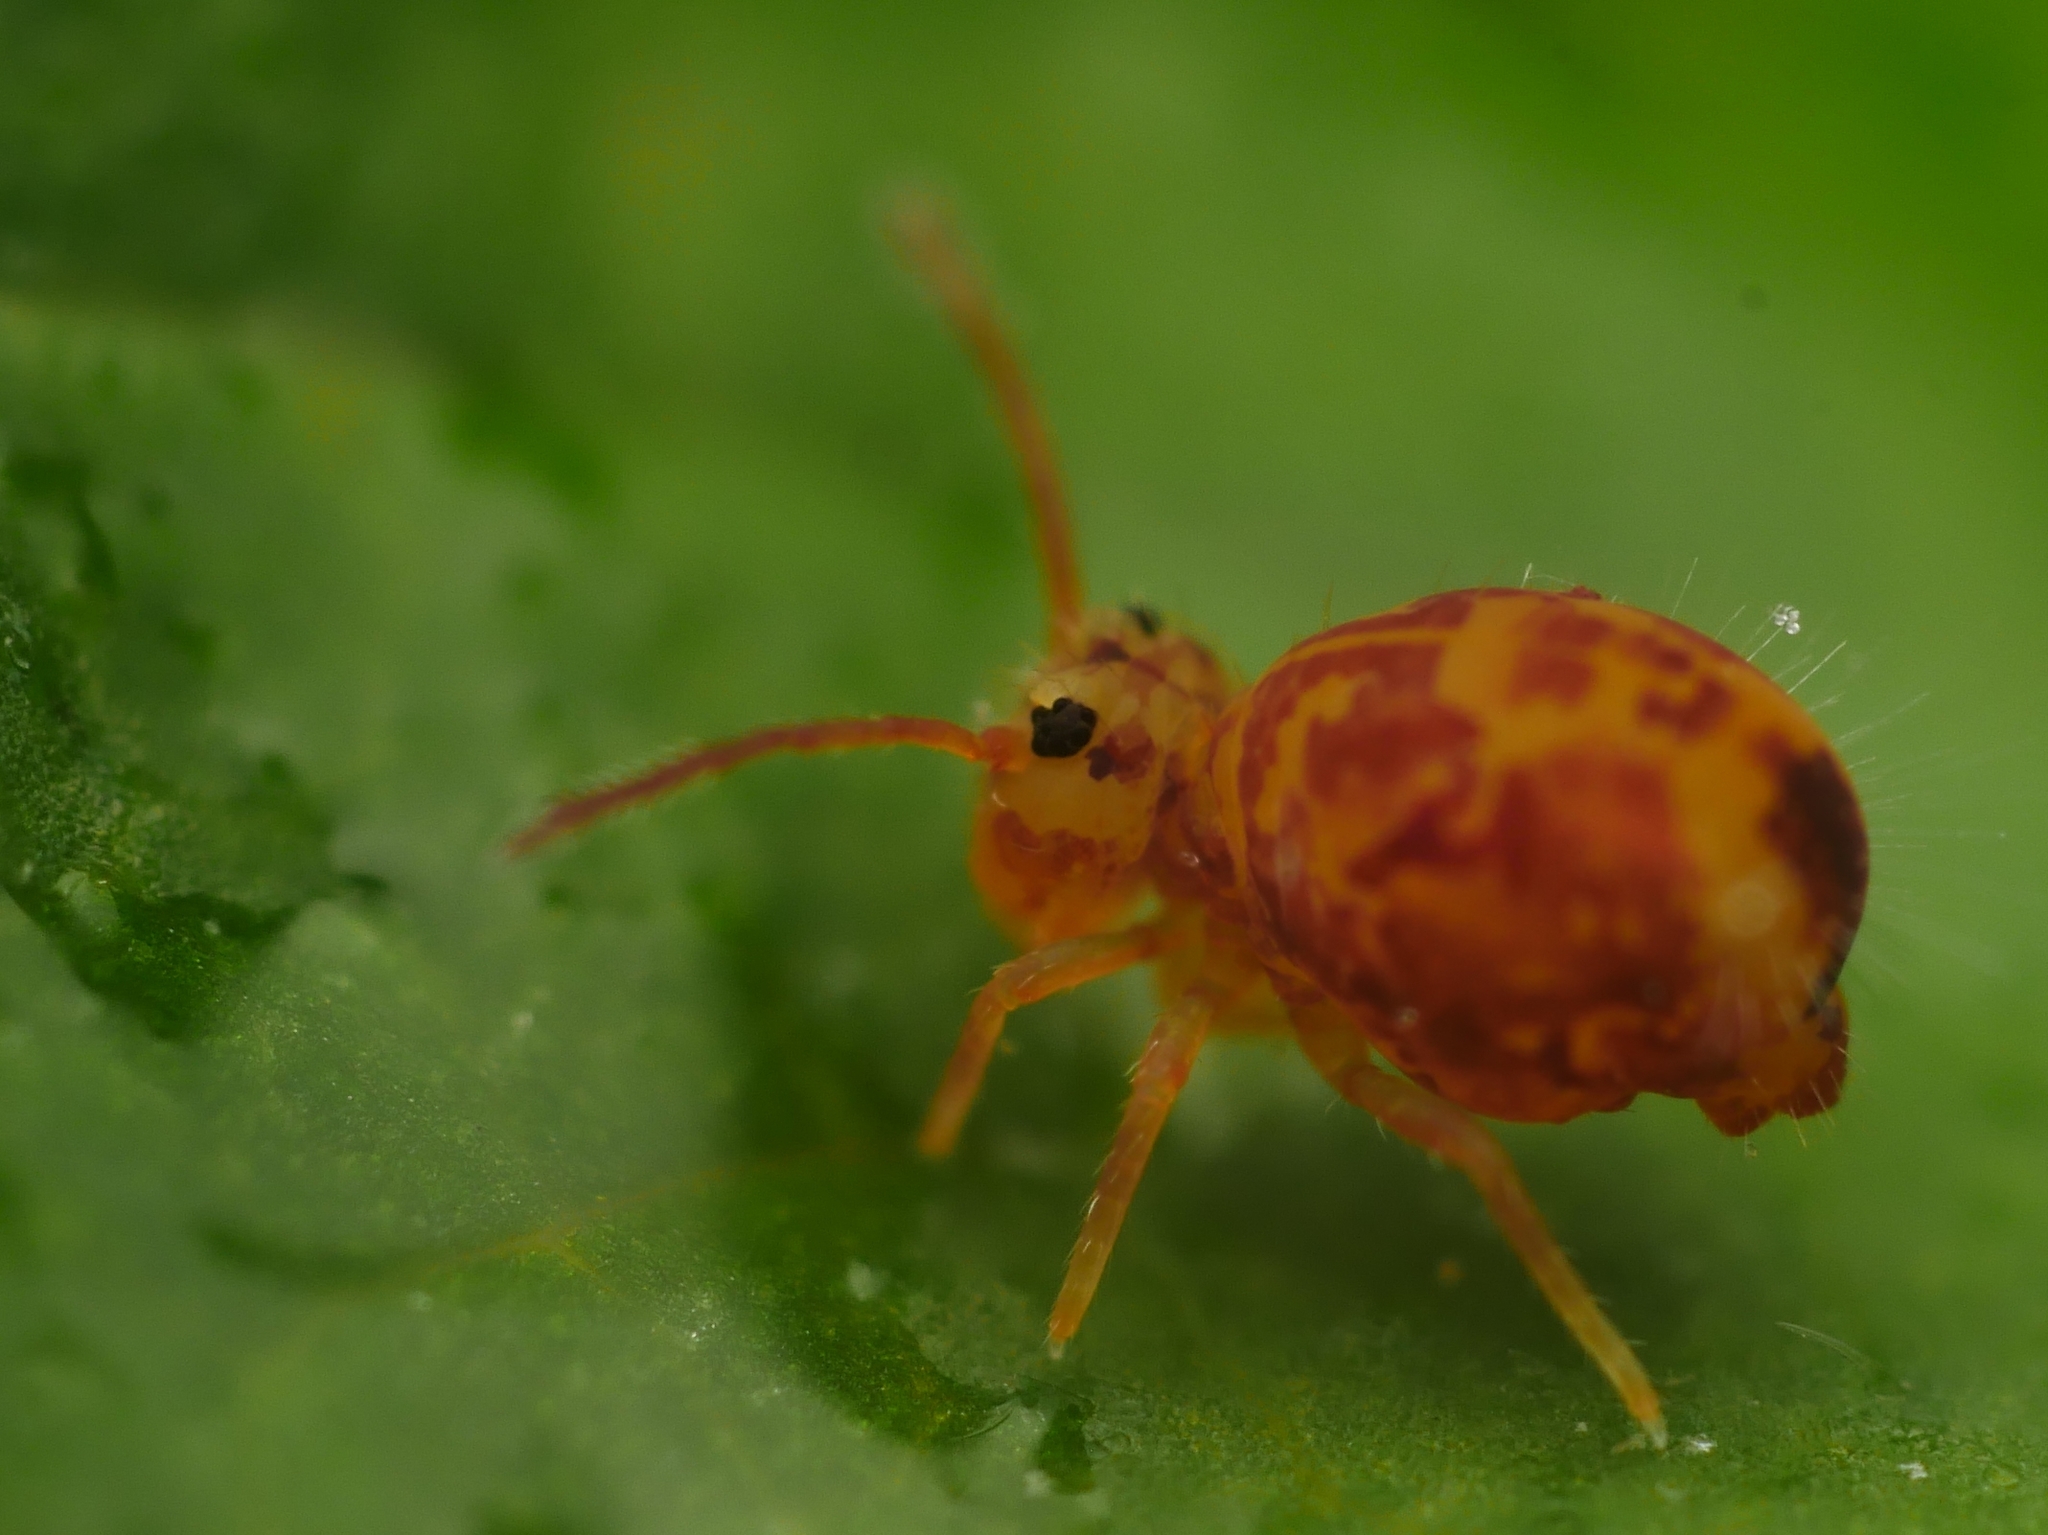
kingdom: Animalia
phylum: Arthropoda
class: Collembola
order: Symphypleona
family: Dicyrtomidae
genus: Dicyrtomina
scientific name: Dicyrtomina ornata
